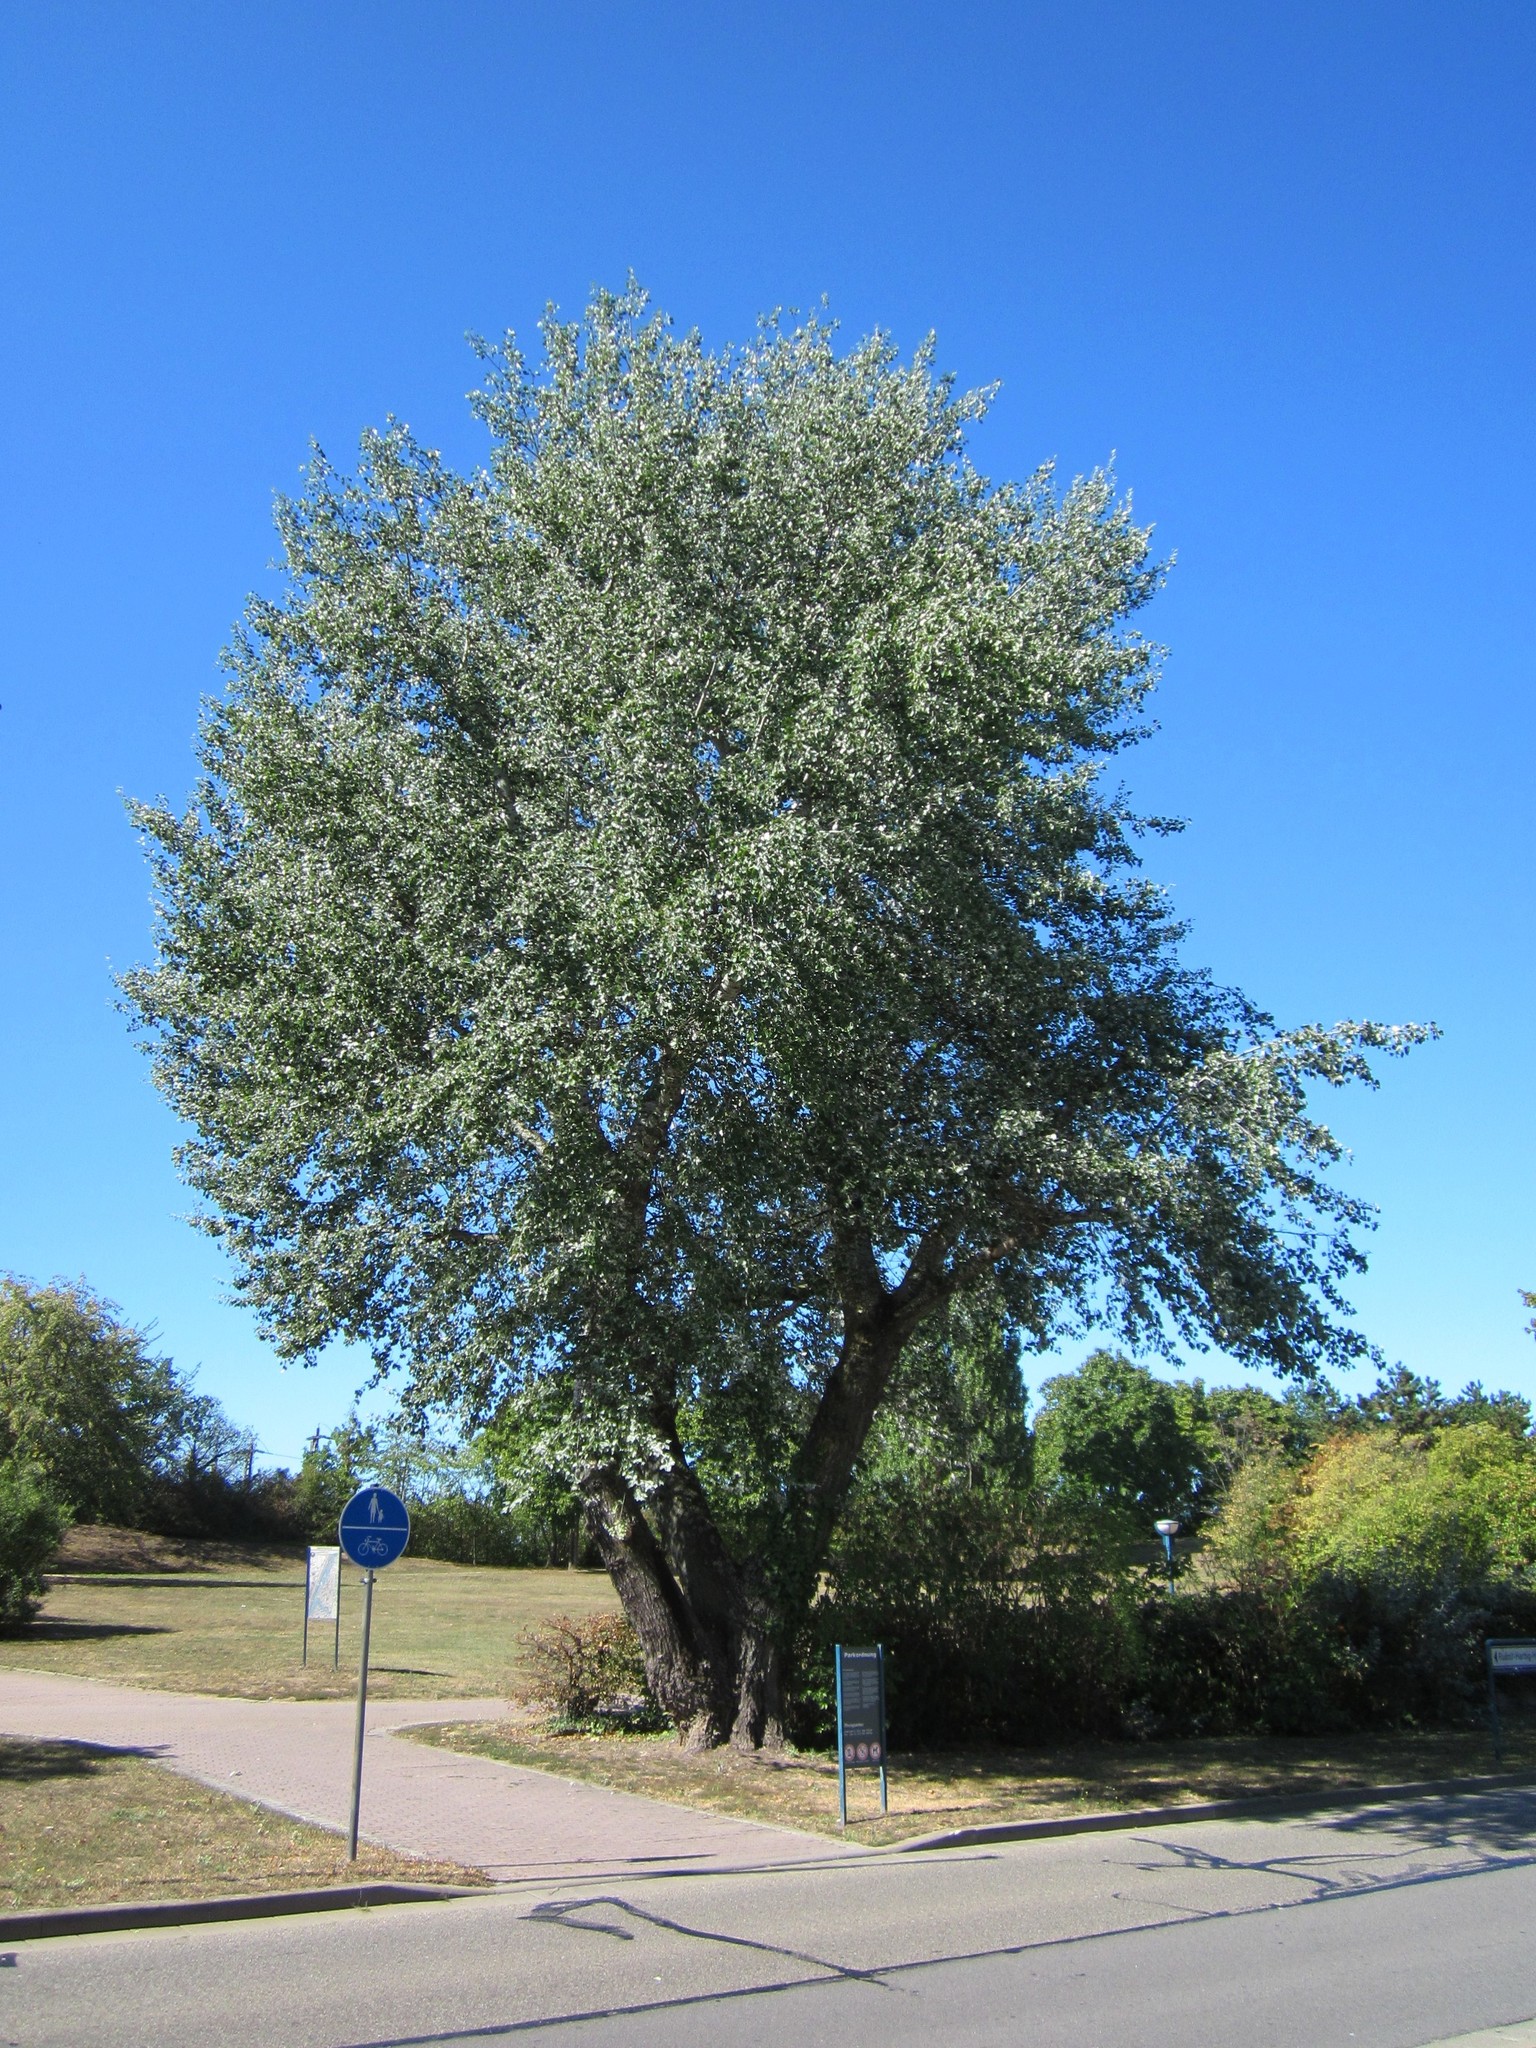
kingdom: Plantae
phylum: Tracheophyta
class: Magnoliopsida
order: Malpighiales
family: Salicaceae
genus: Populus
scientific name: Populus alba
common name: White poplar
